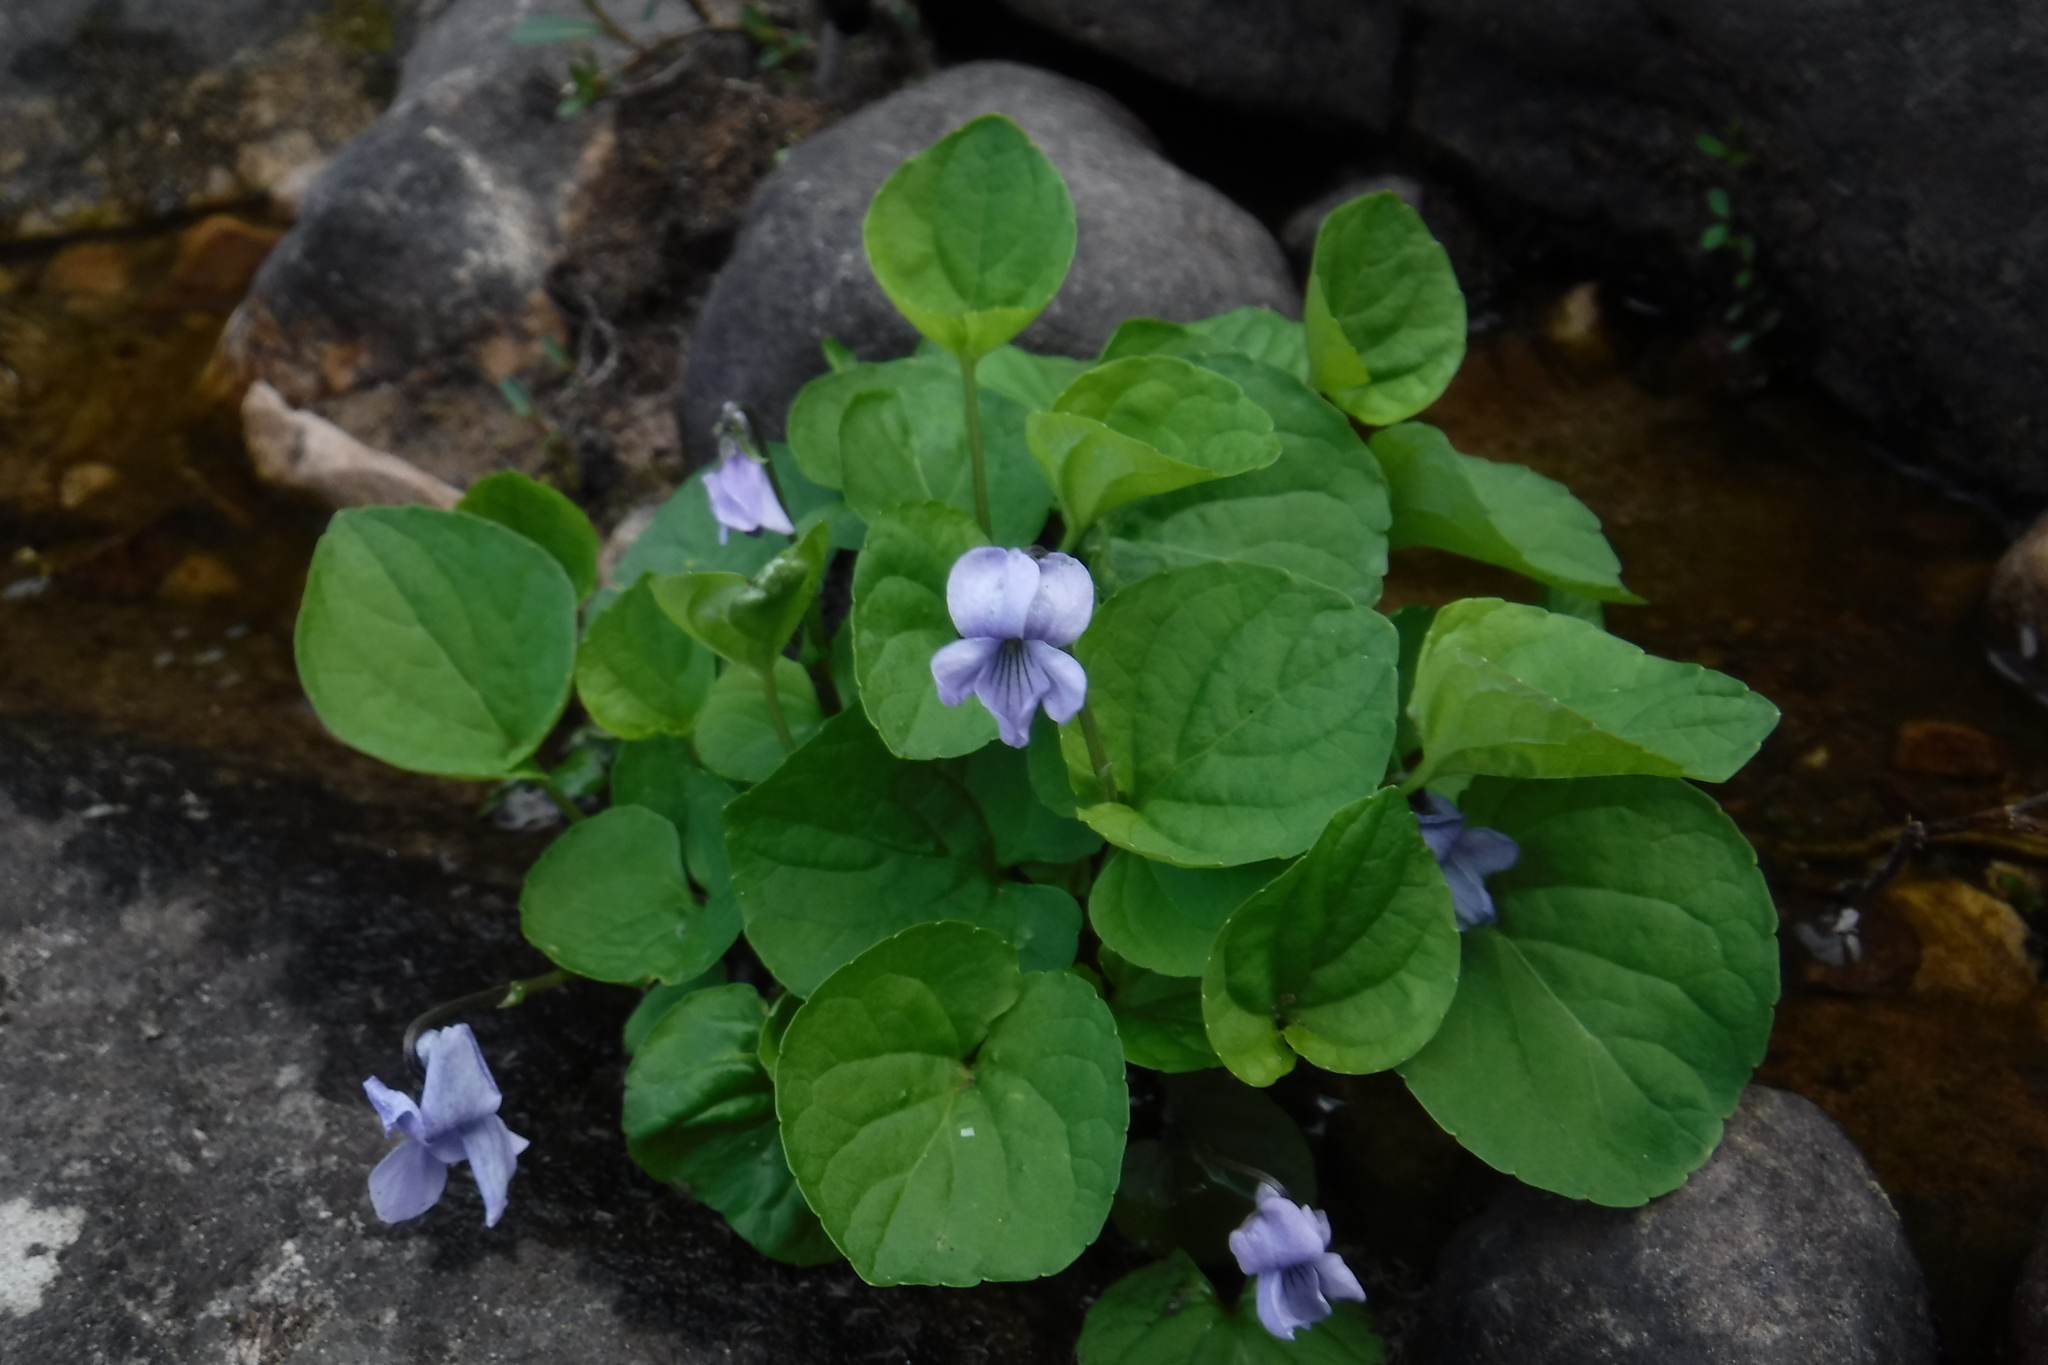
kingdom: Plantae
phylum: Tracheophyta
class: Magnoliopsida
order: Malpighiales
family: Violaceae
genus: Viola
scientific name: Viola epipsila
